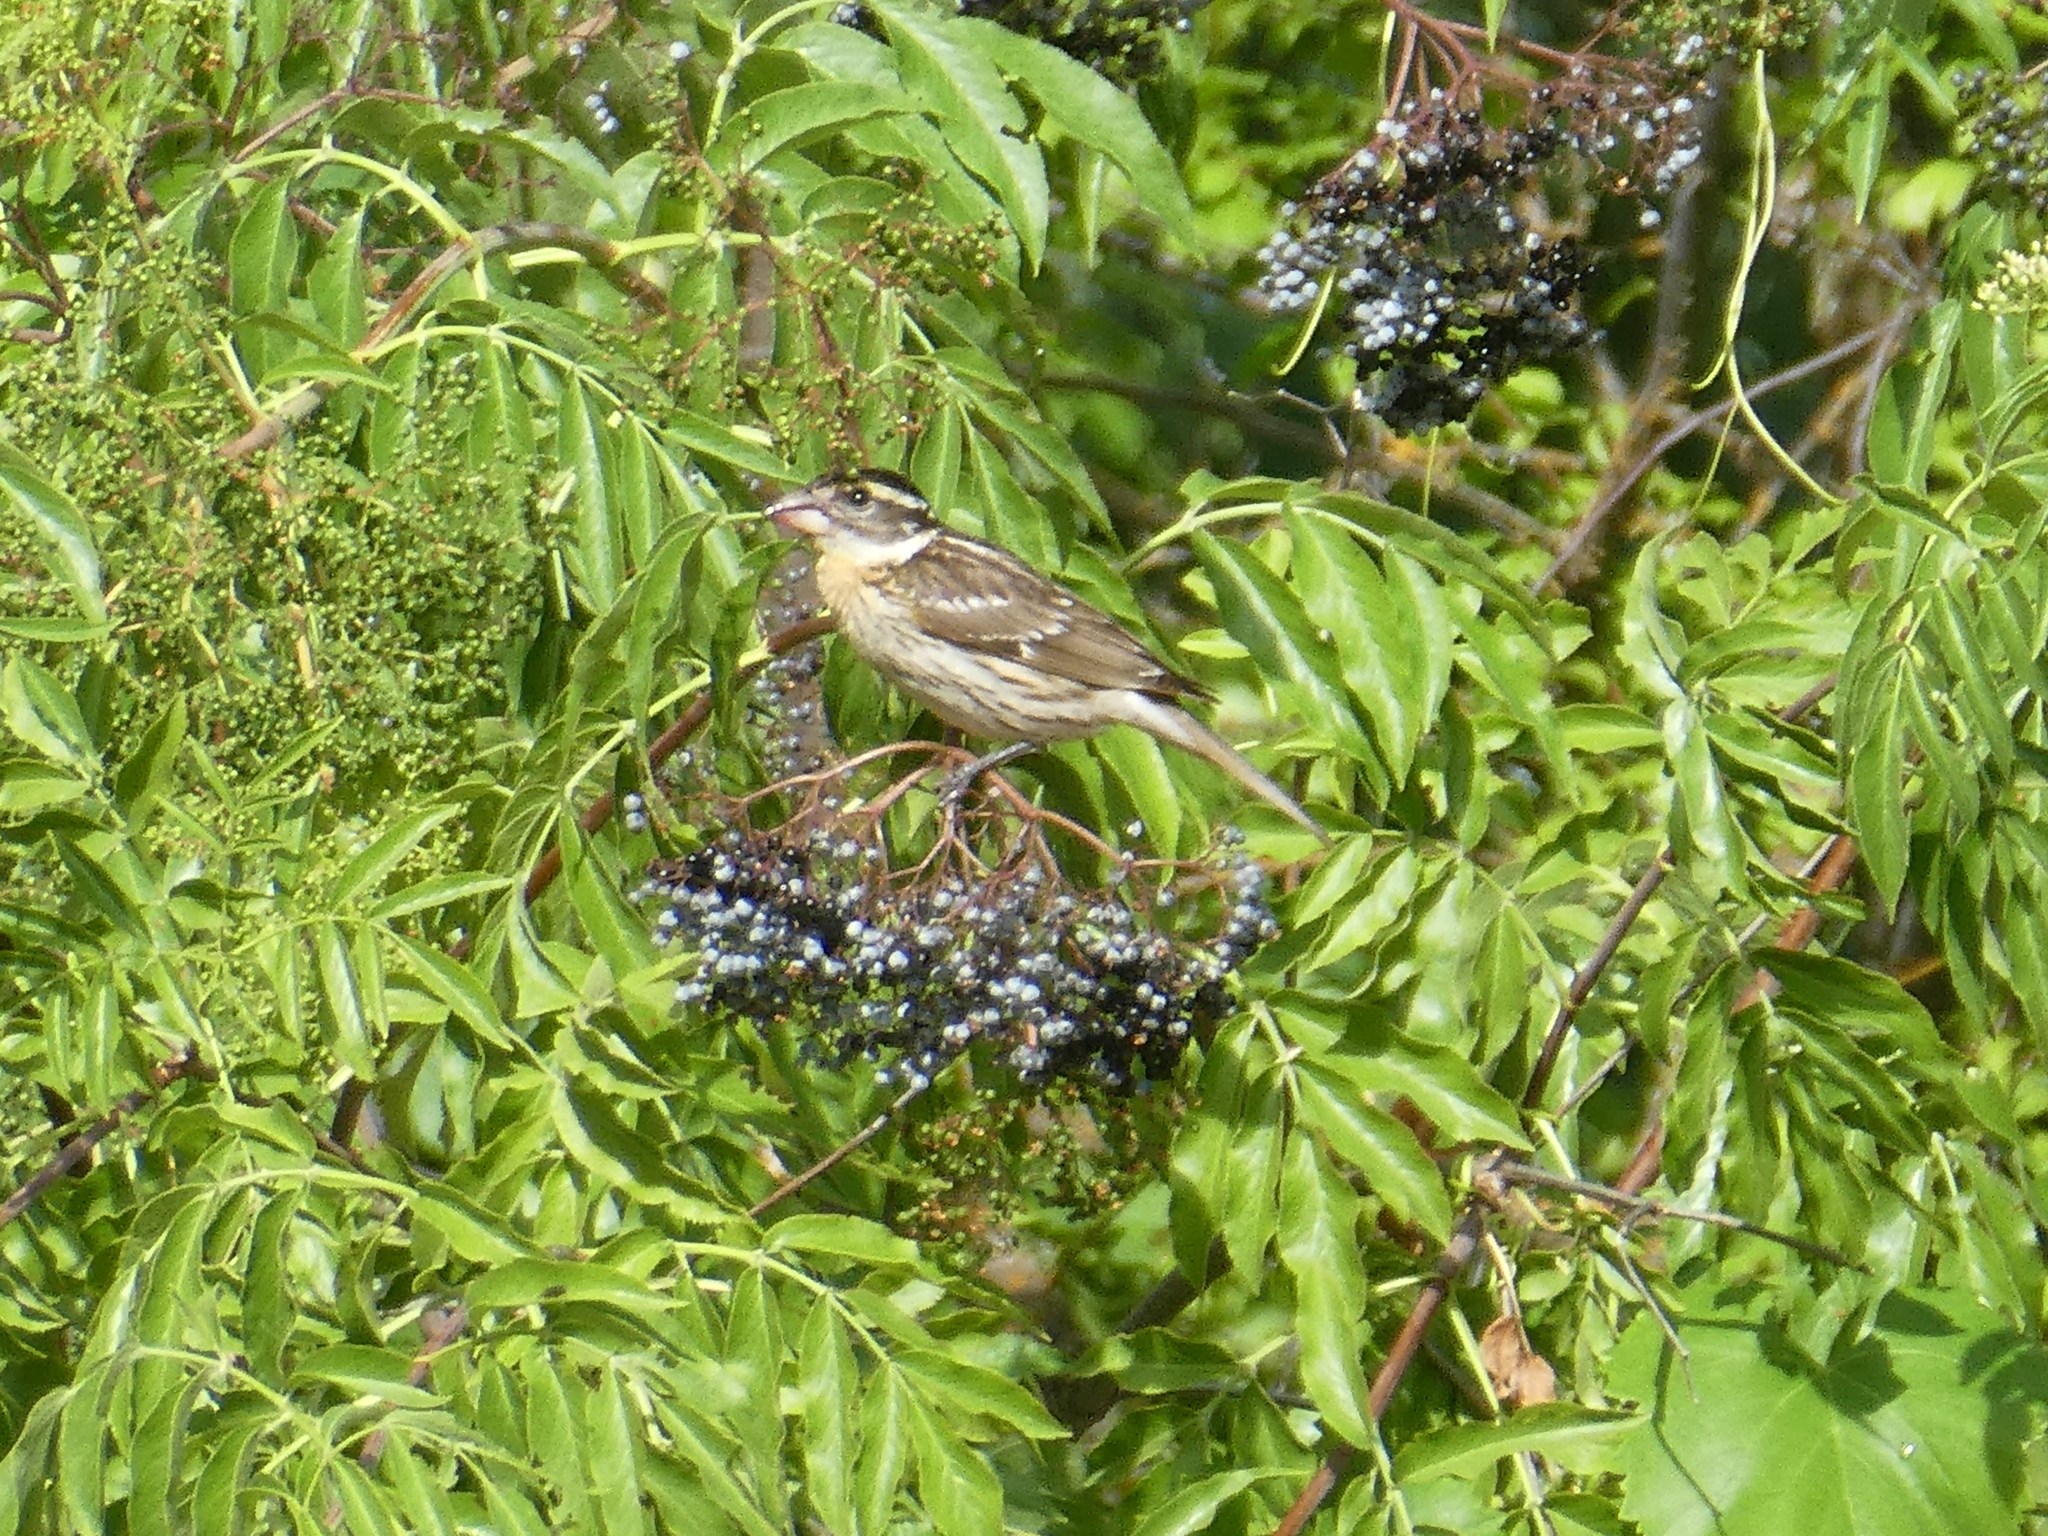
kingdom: Animalia
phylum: Chordata
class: Aves
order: Passeriformes
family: Cardinalidae
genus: Pheucticus
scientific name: Pheucticus melanocephalus
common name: Black-headed grosbeak
